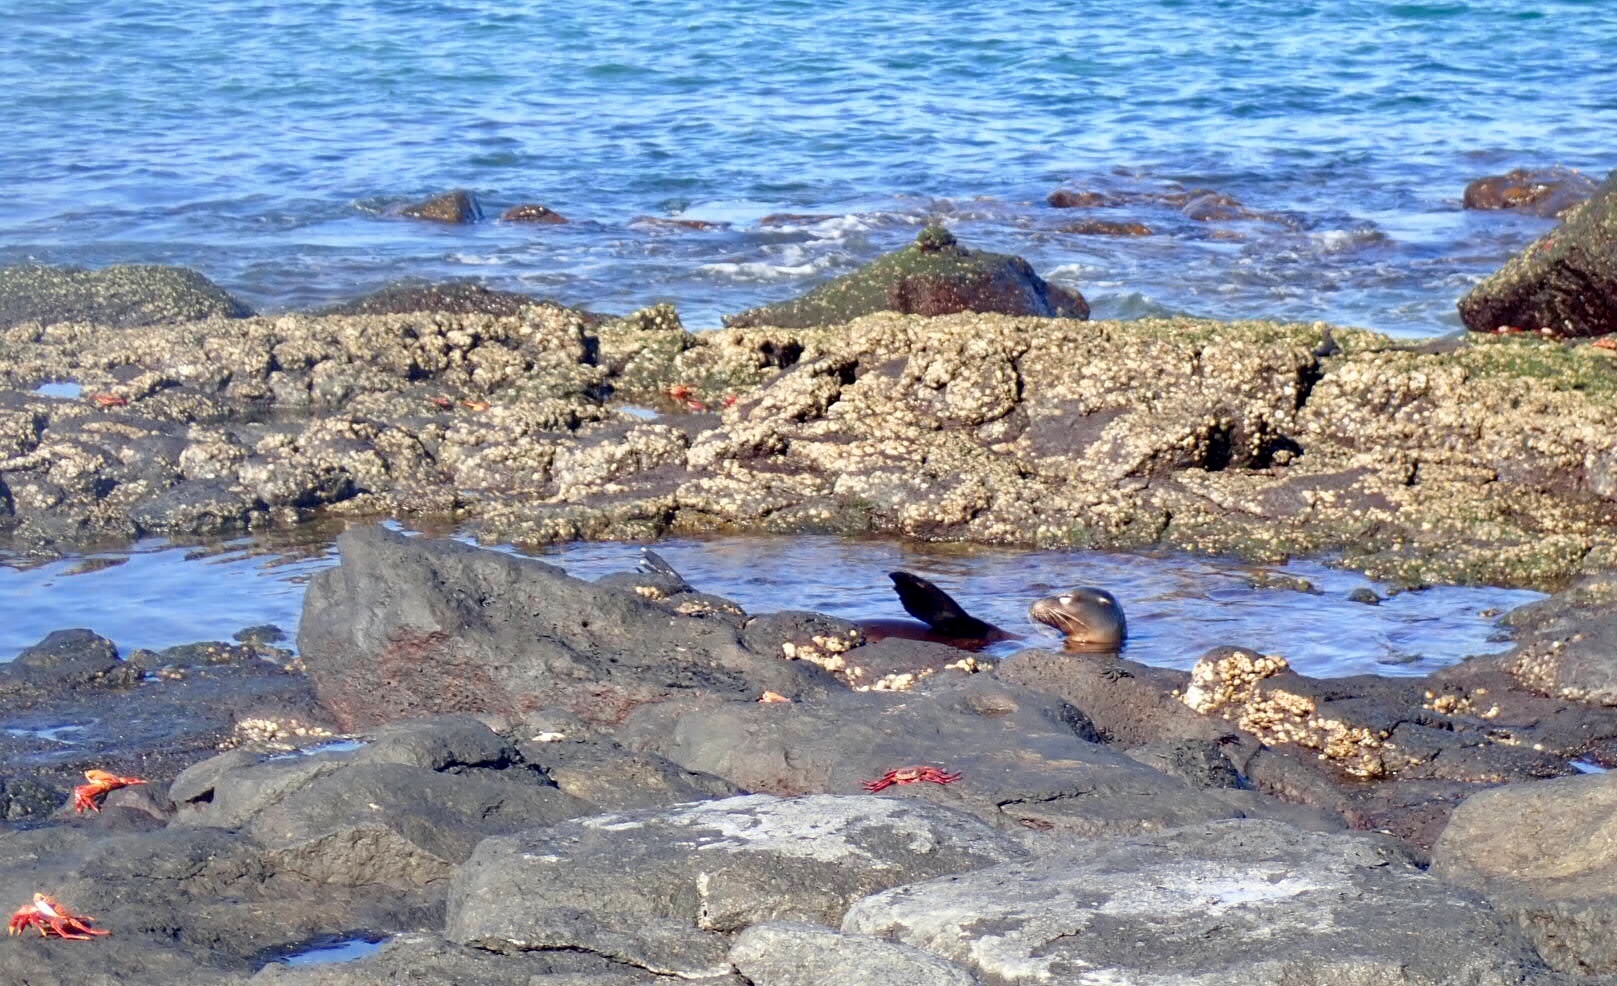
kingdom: Animalia
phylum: Chordata
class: Mammalia
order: Carnivora
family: Otariidae
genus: Zalophus
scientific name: Zalophus wollebaeki
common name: Galapagos sea lion
